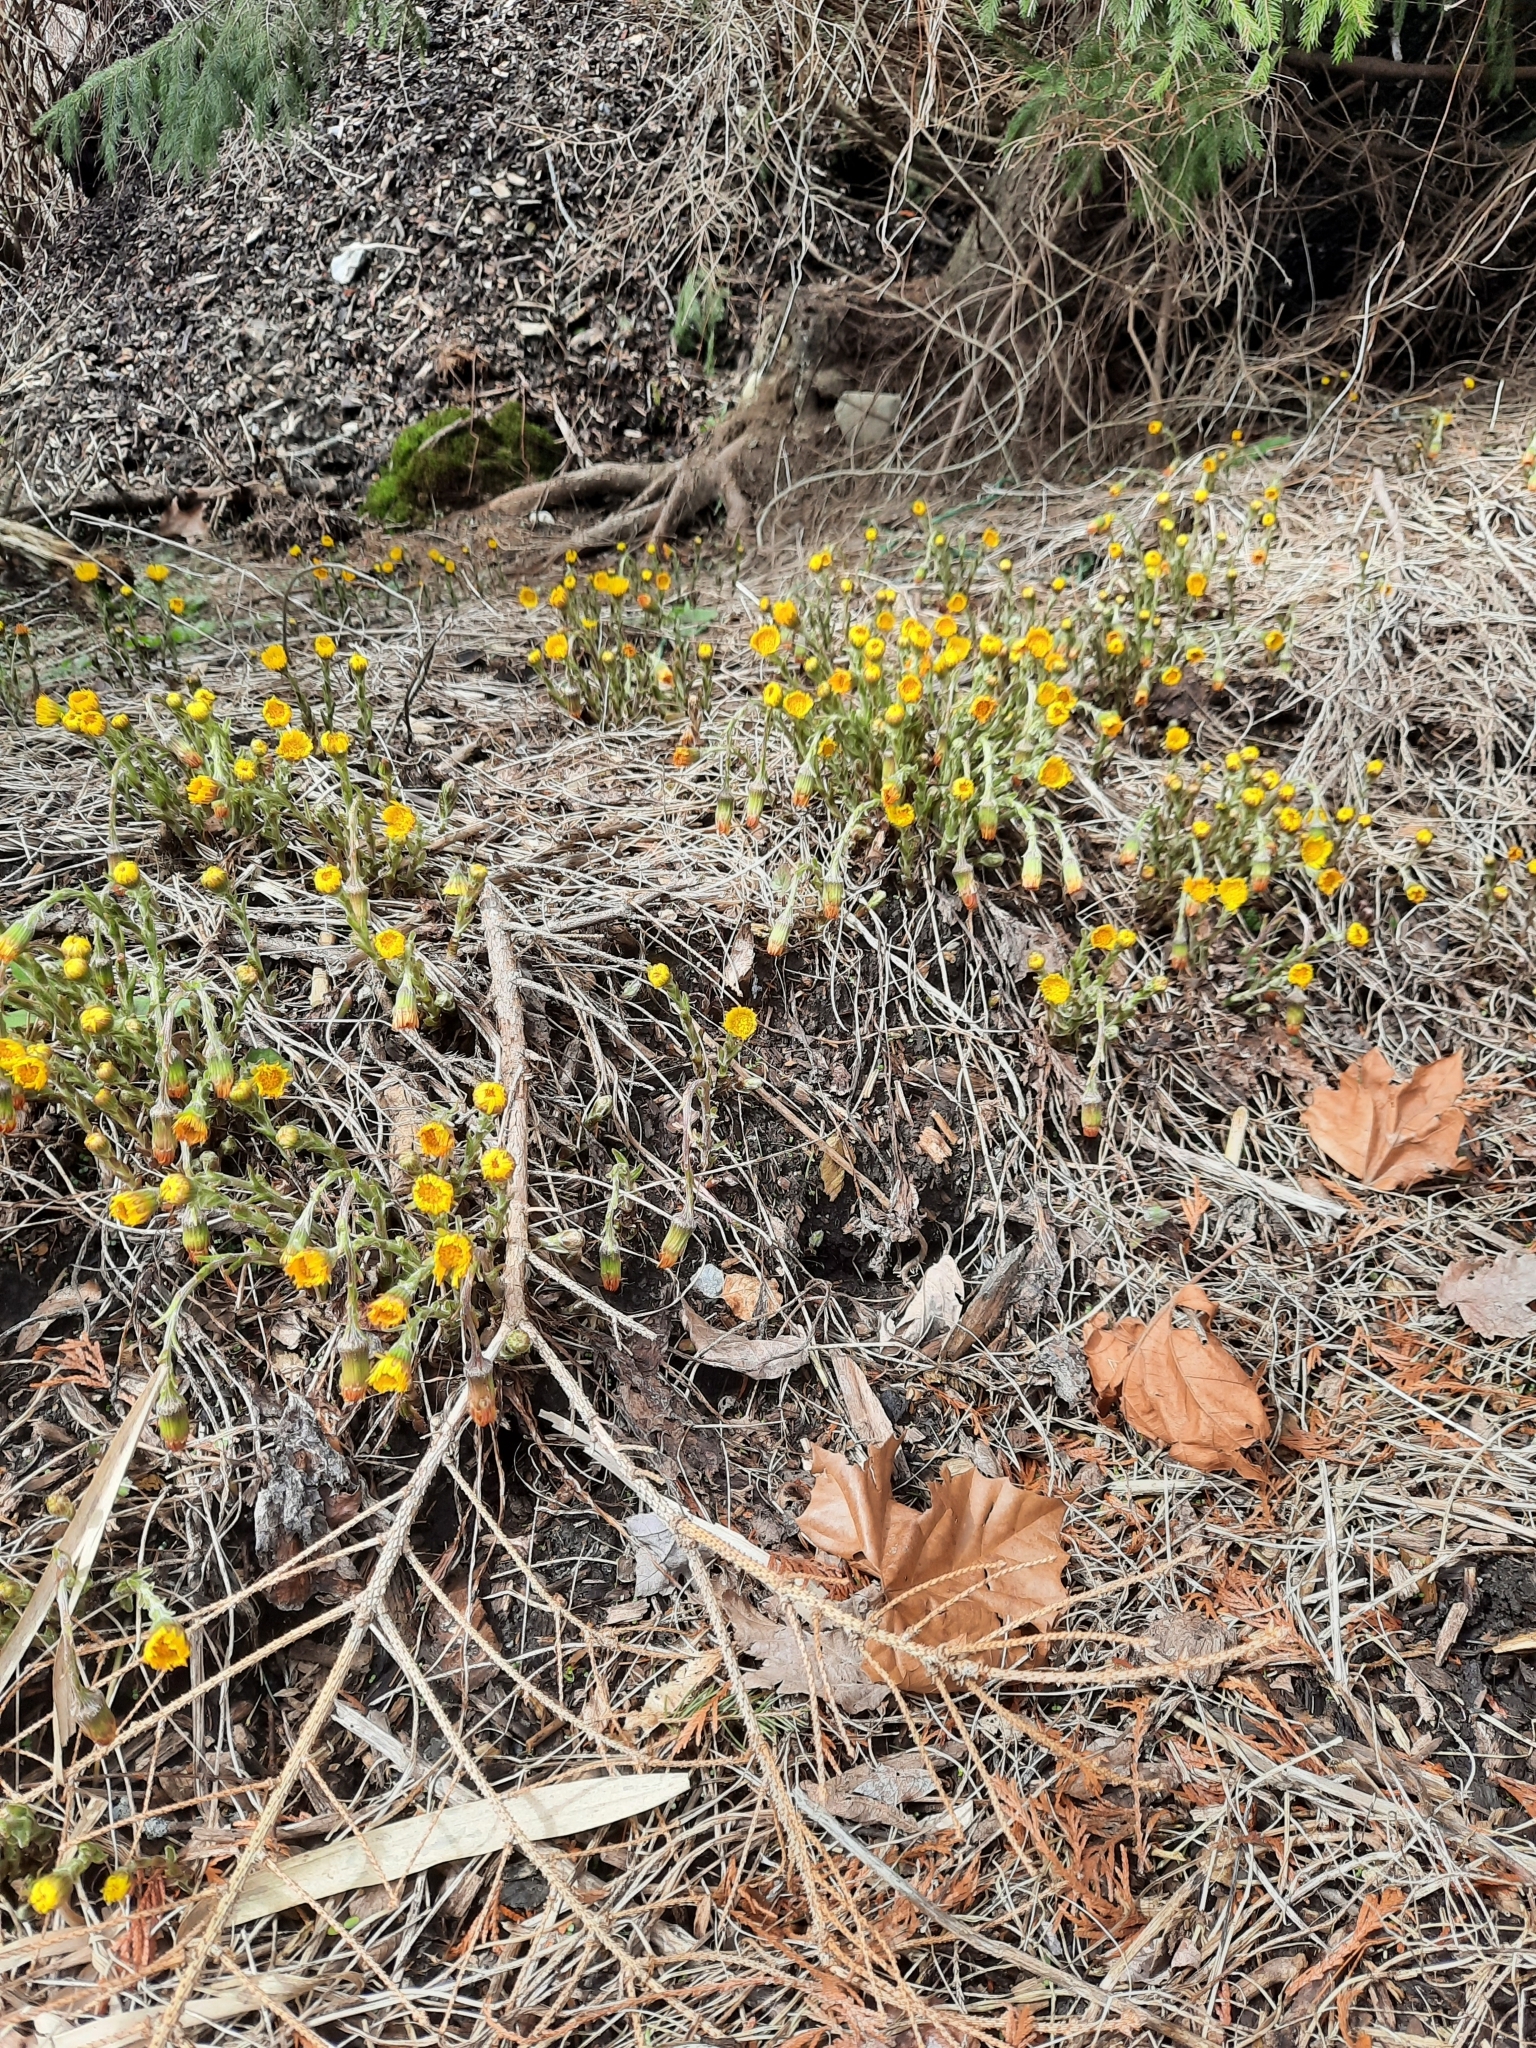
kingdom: Plantae
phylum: Tracheophyta
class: Magnoliopsida
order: Asterales
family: Asteraceae
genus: Tussilago
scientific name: Tussilago farfara
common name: Coltsfoot
